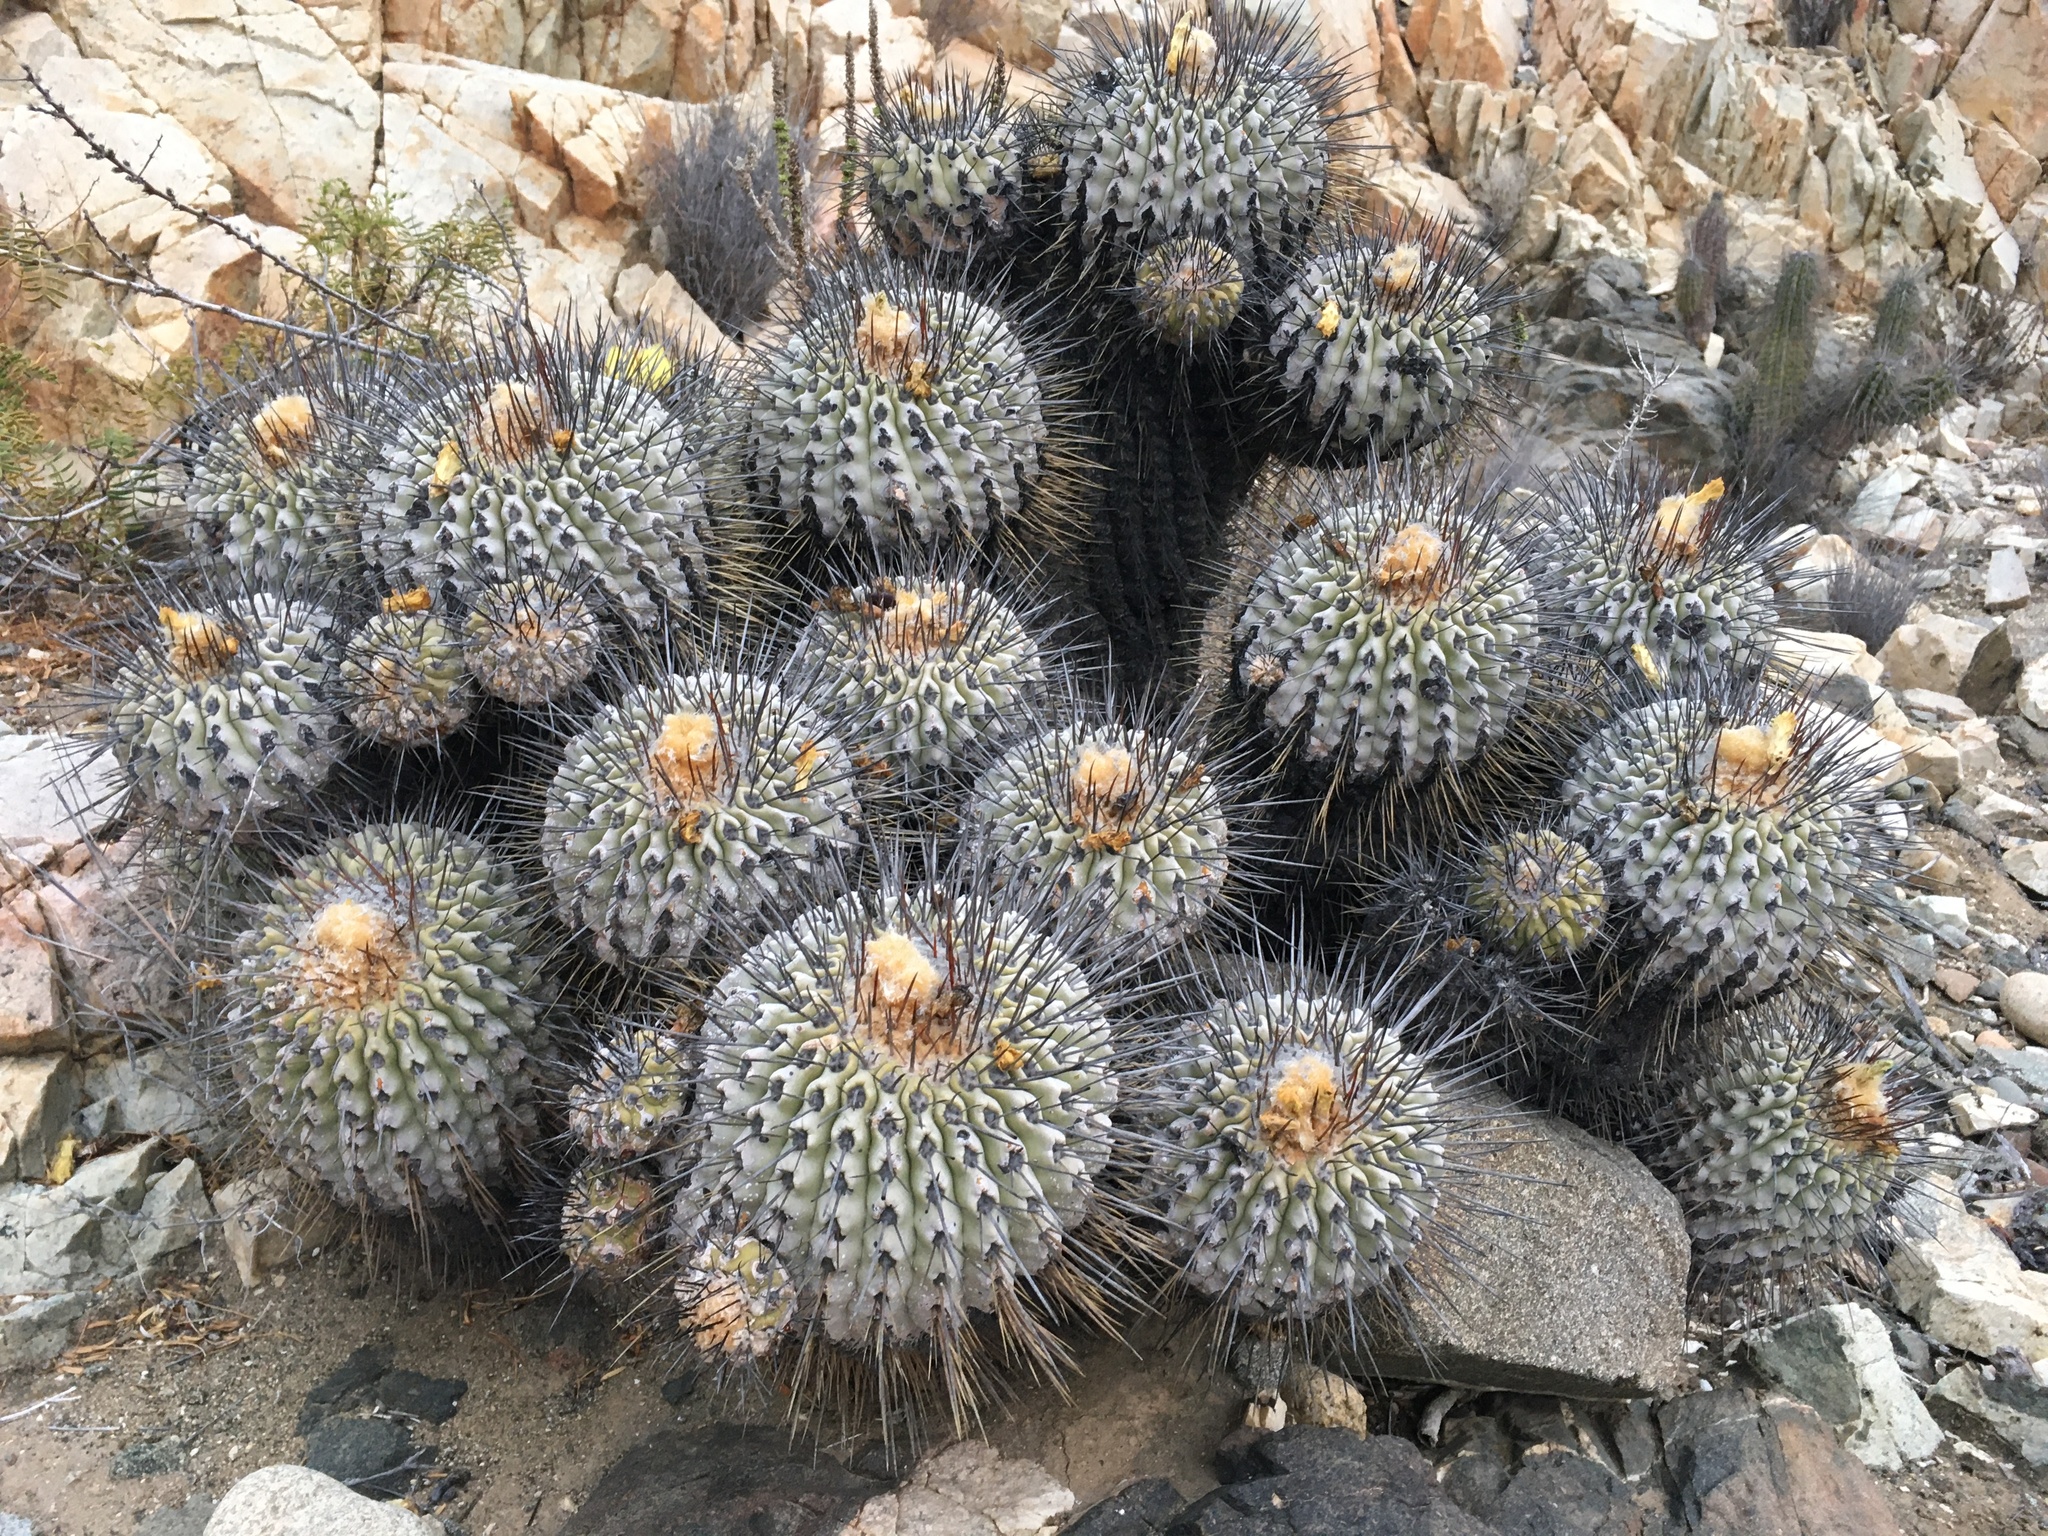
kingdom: Plantae
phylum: Tracheophyta
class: Magnoliopsida
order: Caryophyllales
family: Cactaceae
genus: Copiapoa
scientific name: Copiapoa malletiana
